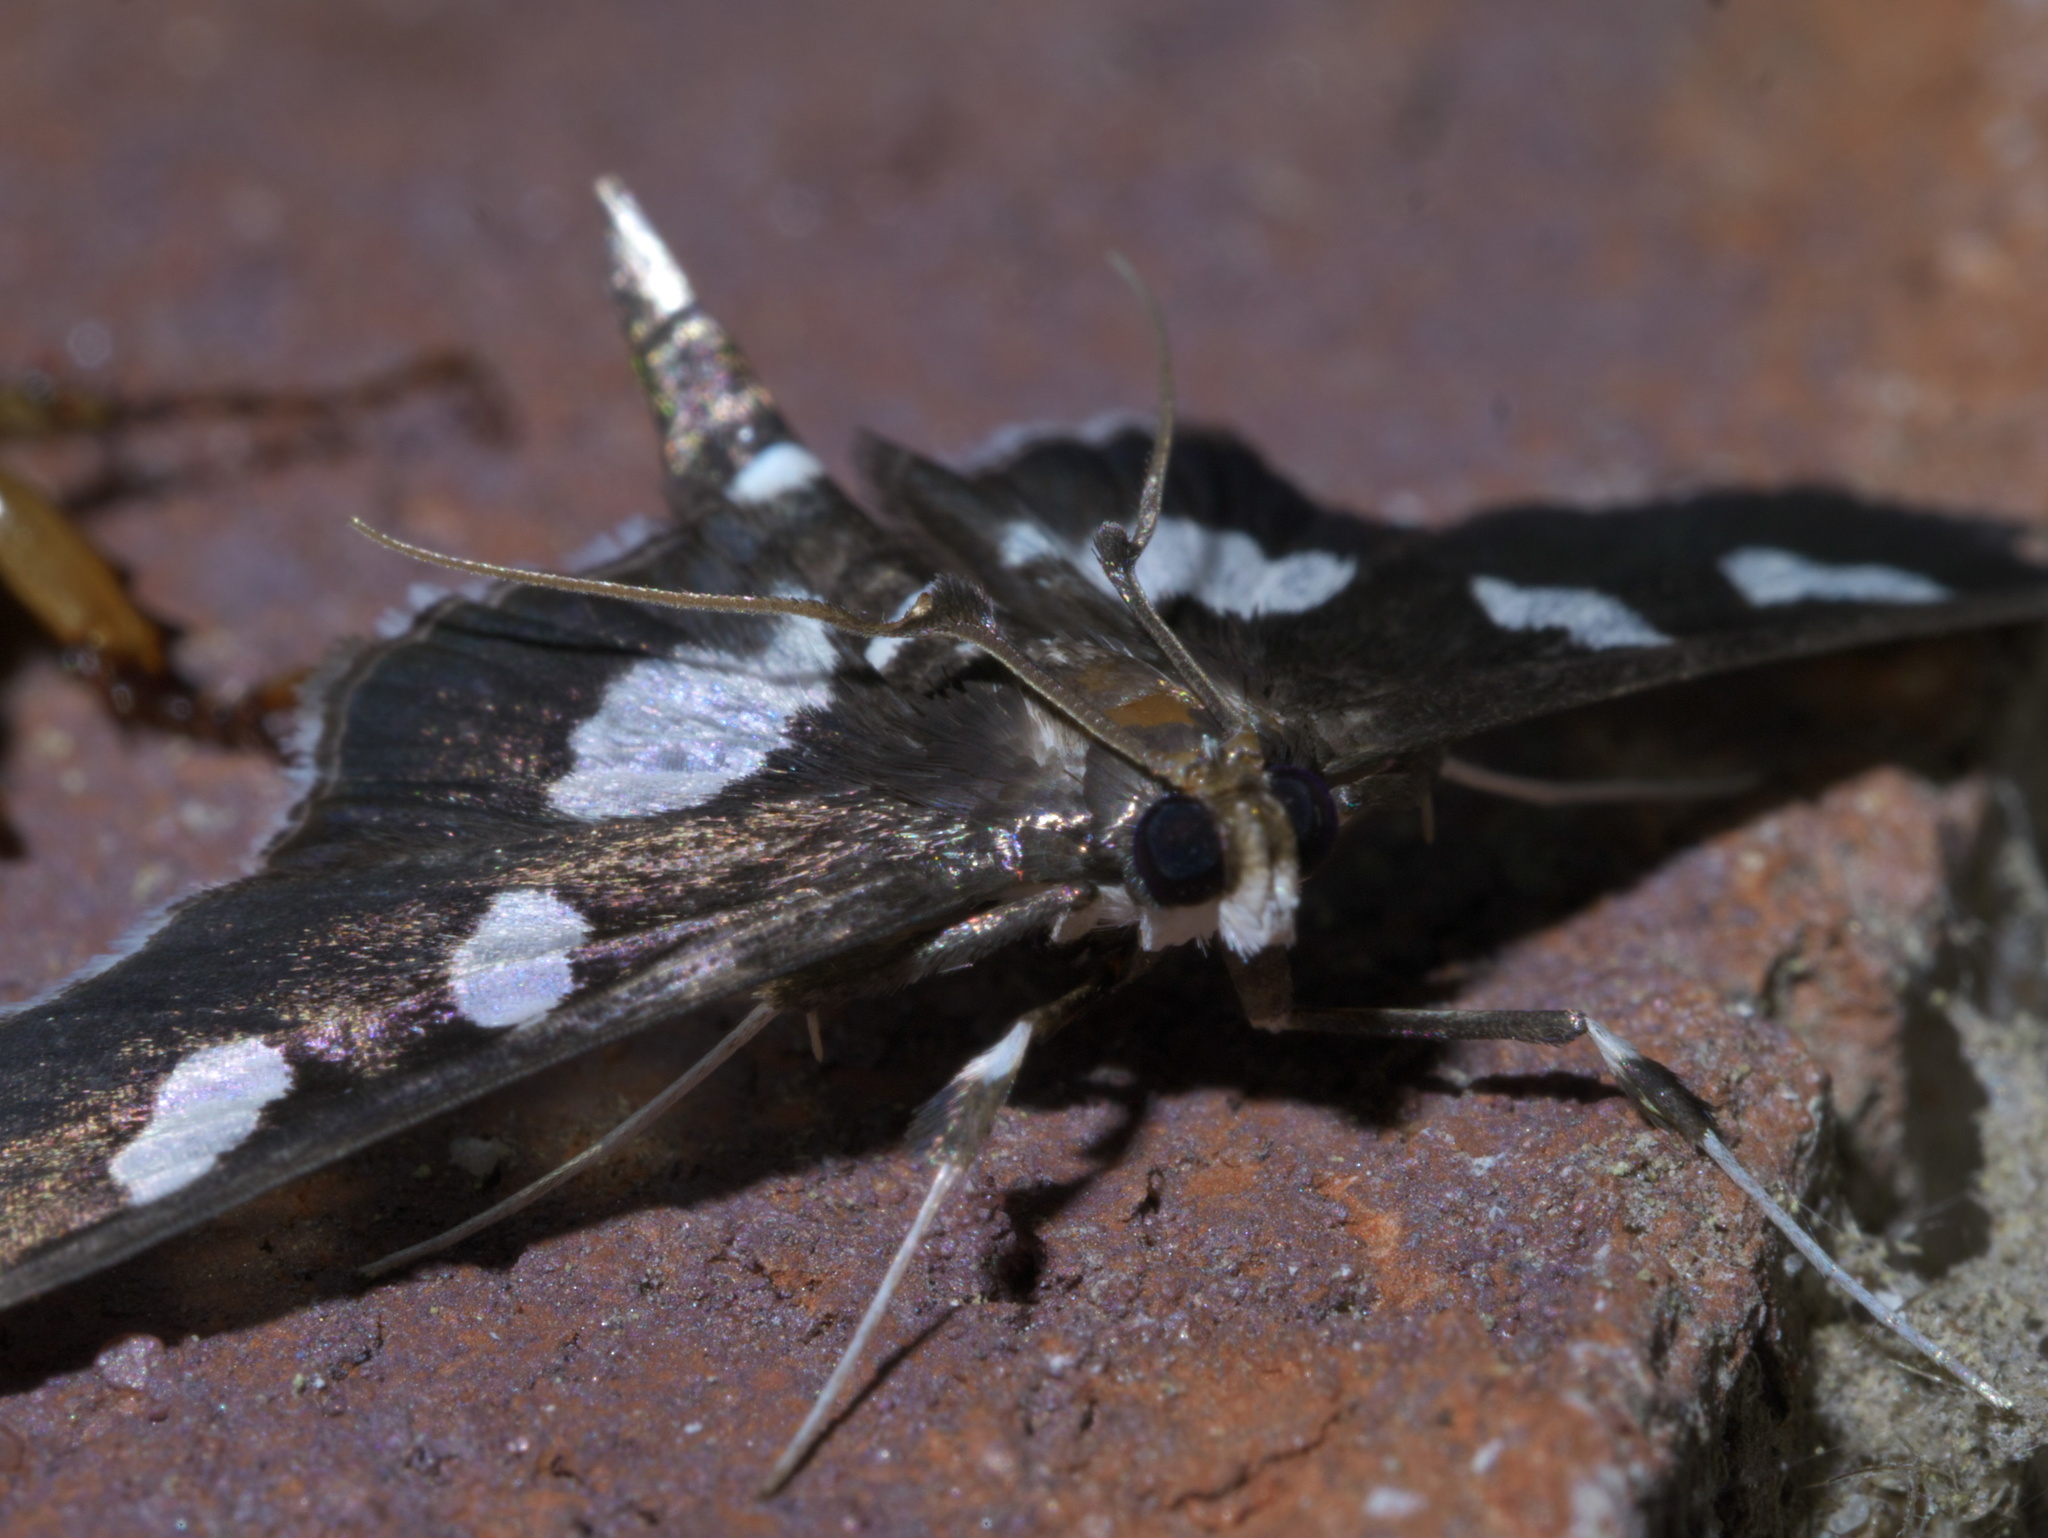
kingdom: Animalia
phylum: Arthropoda
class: Insecta
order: Lepidoptera
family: Crambidae
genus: Desmia
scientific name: Desmia
